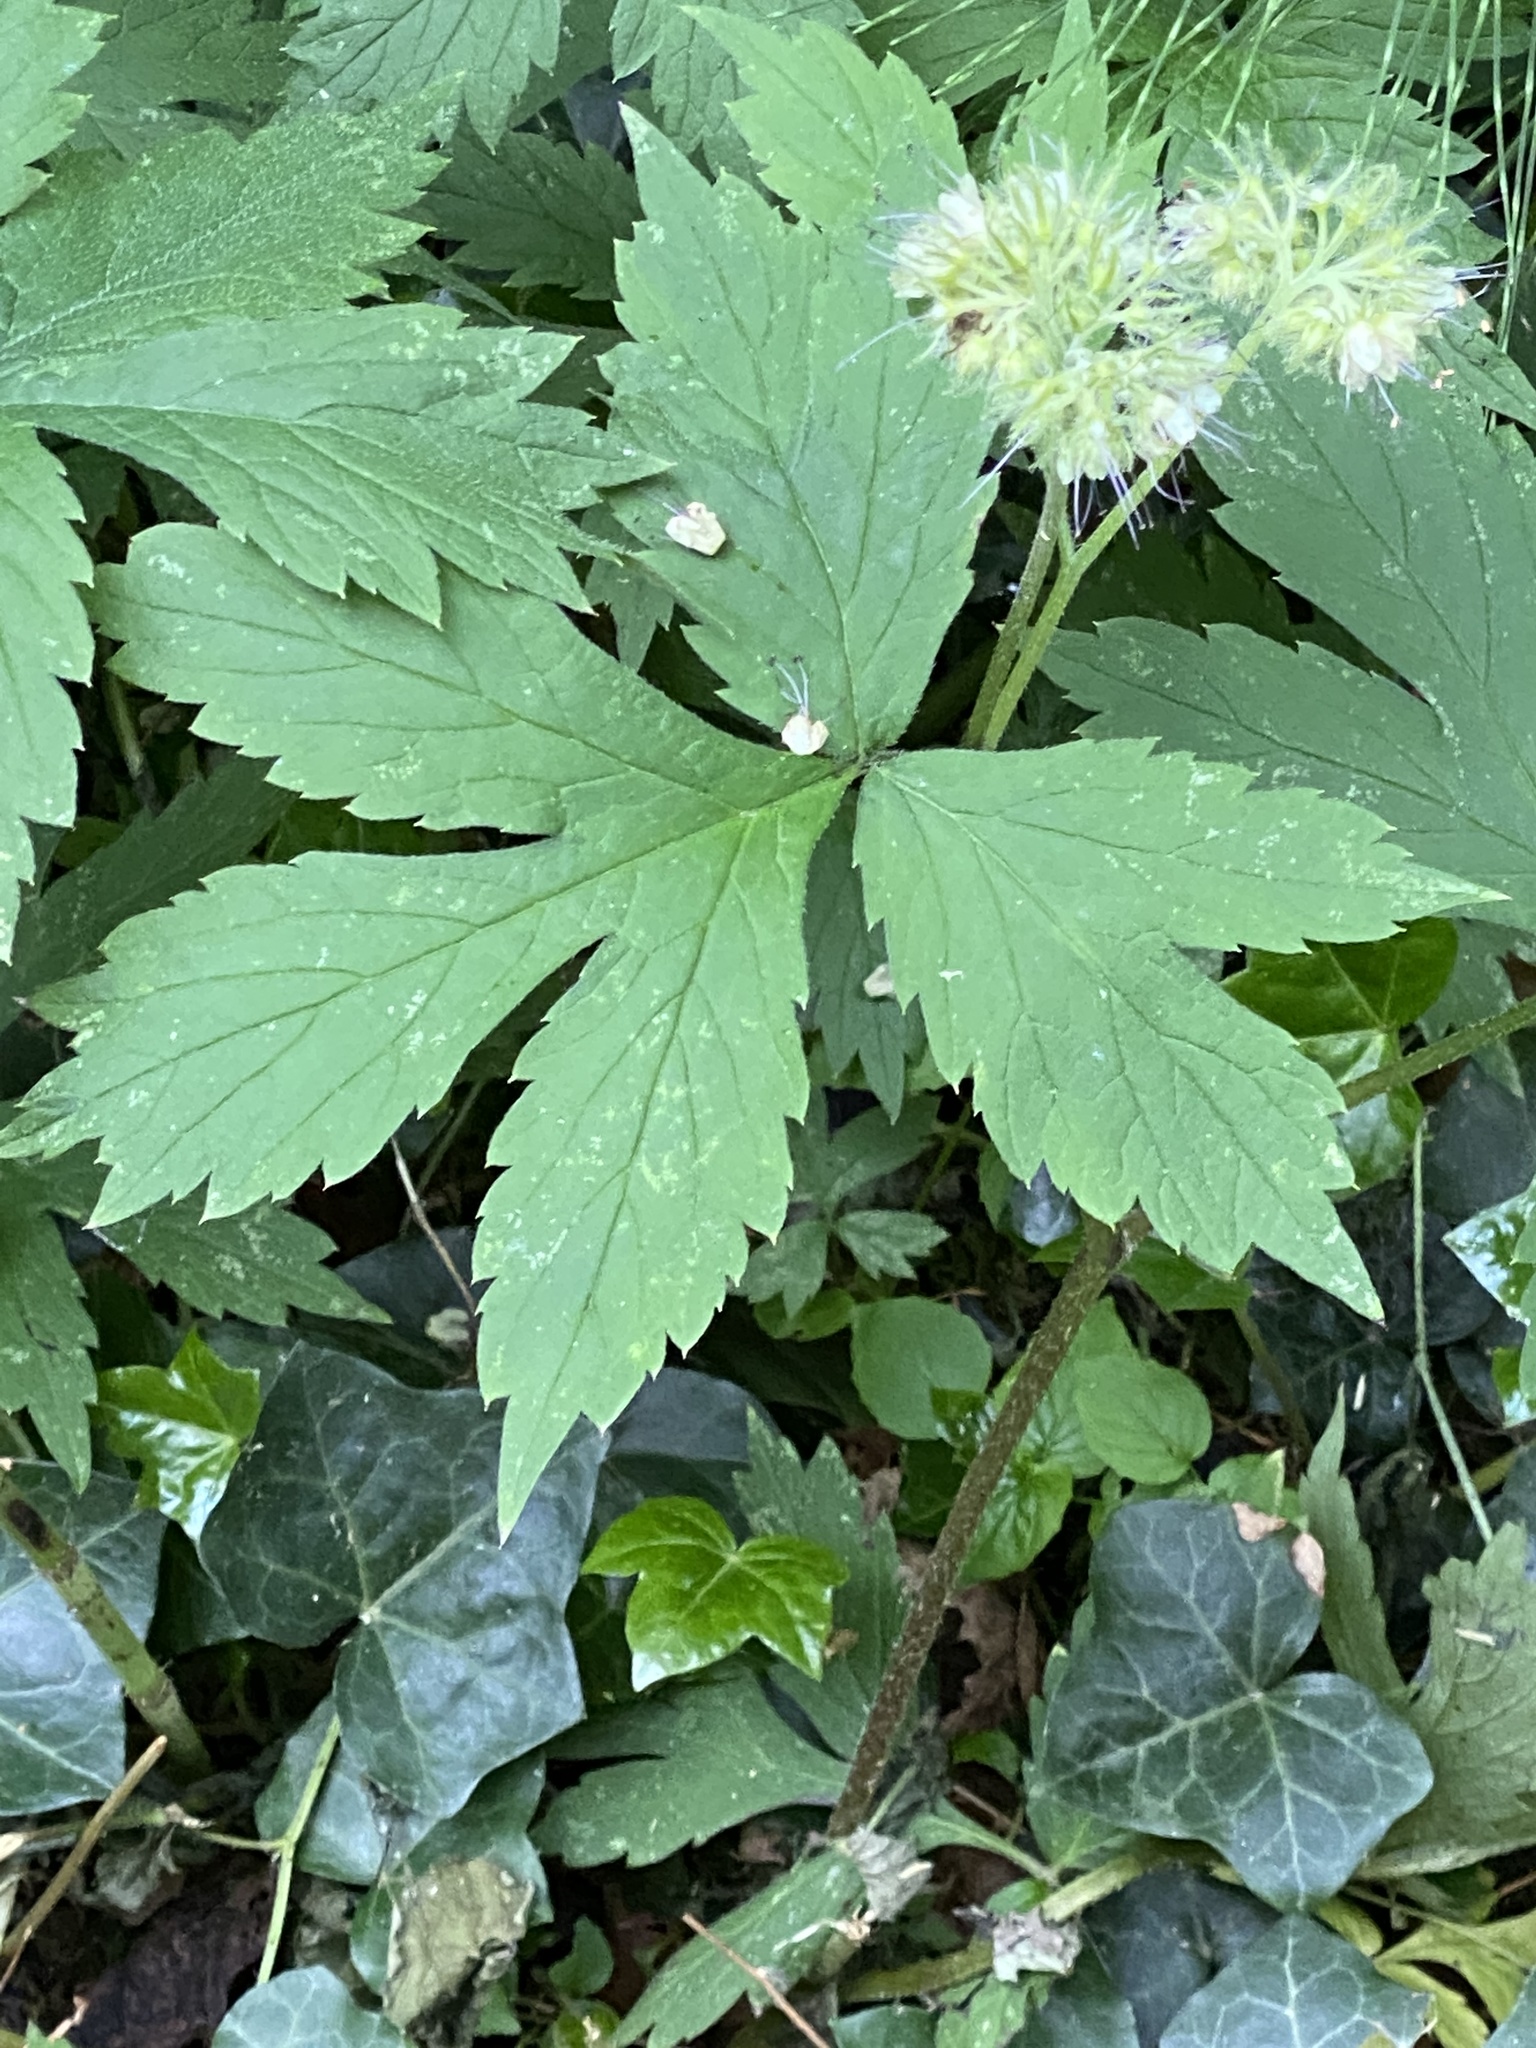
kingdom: Plantae
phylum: Tracheophyta
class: Magnoliopsida
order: Boraginales
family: Hydrophyllaceae
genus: Hydrophyllum
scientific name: Hydrophyllum tenuipes
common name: Pacific waterleaf
